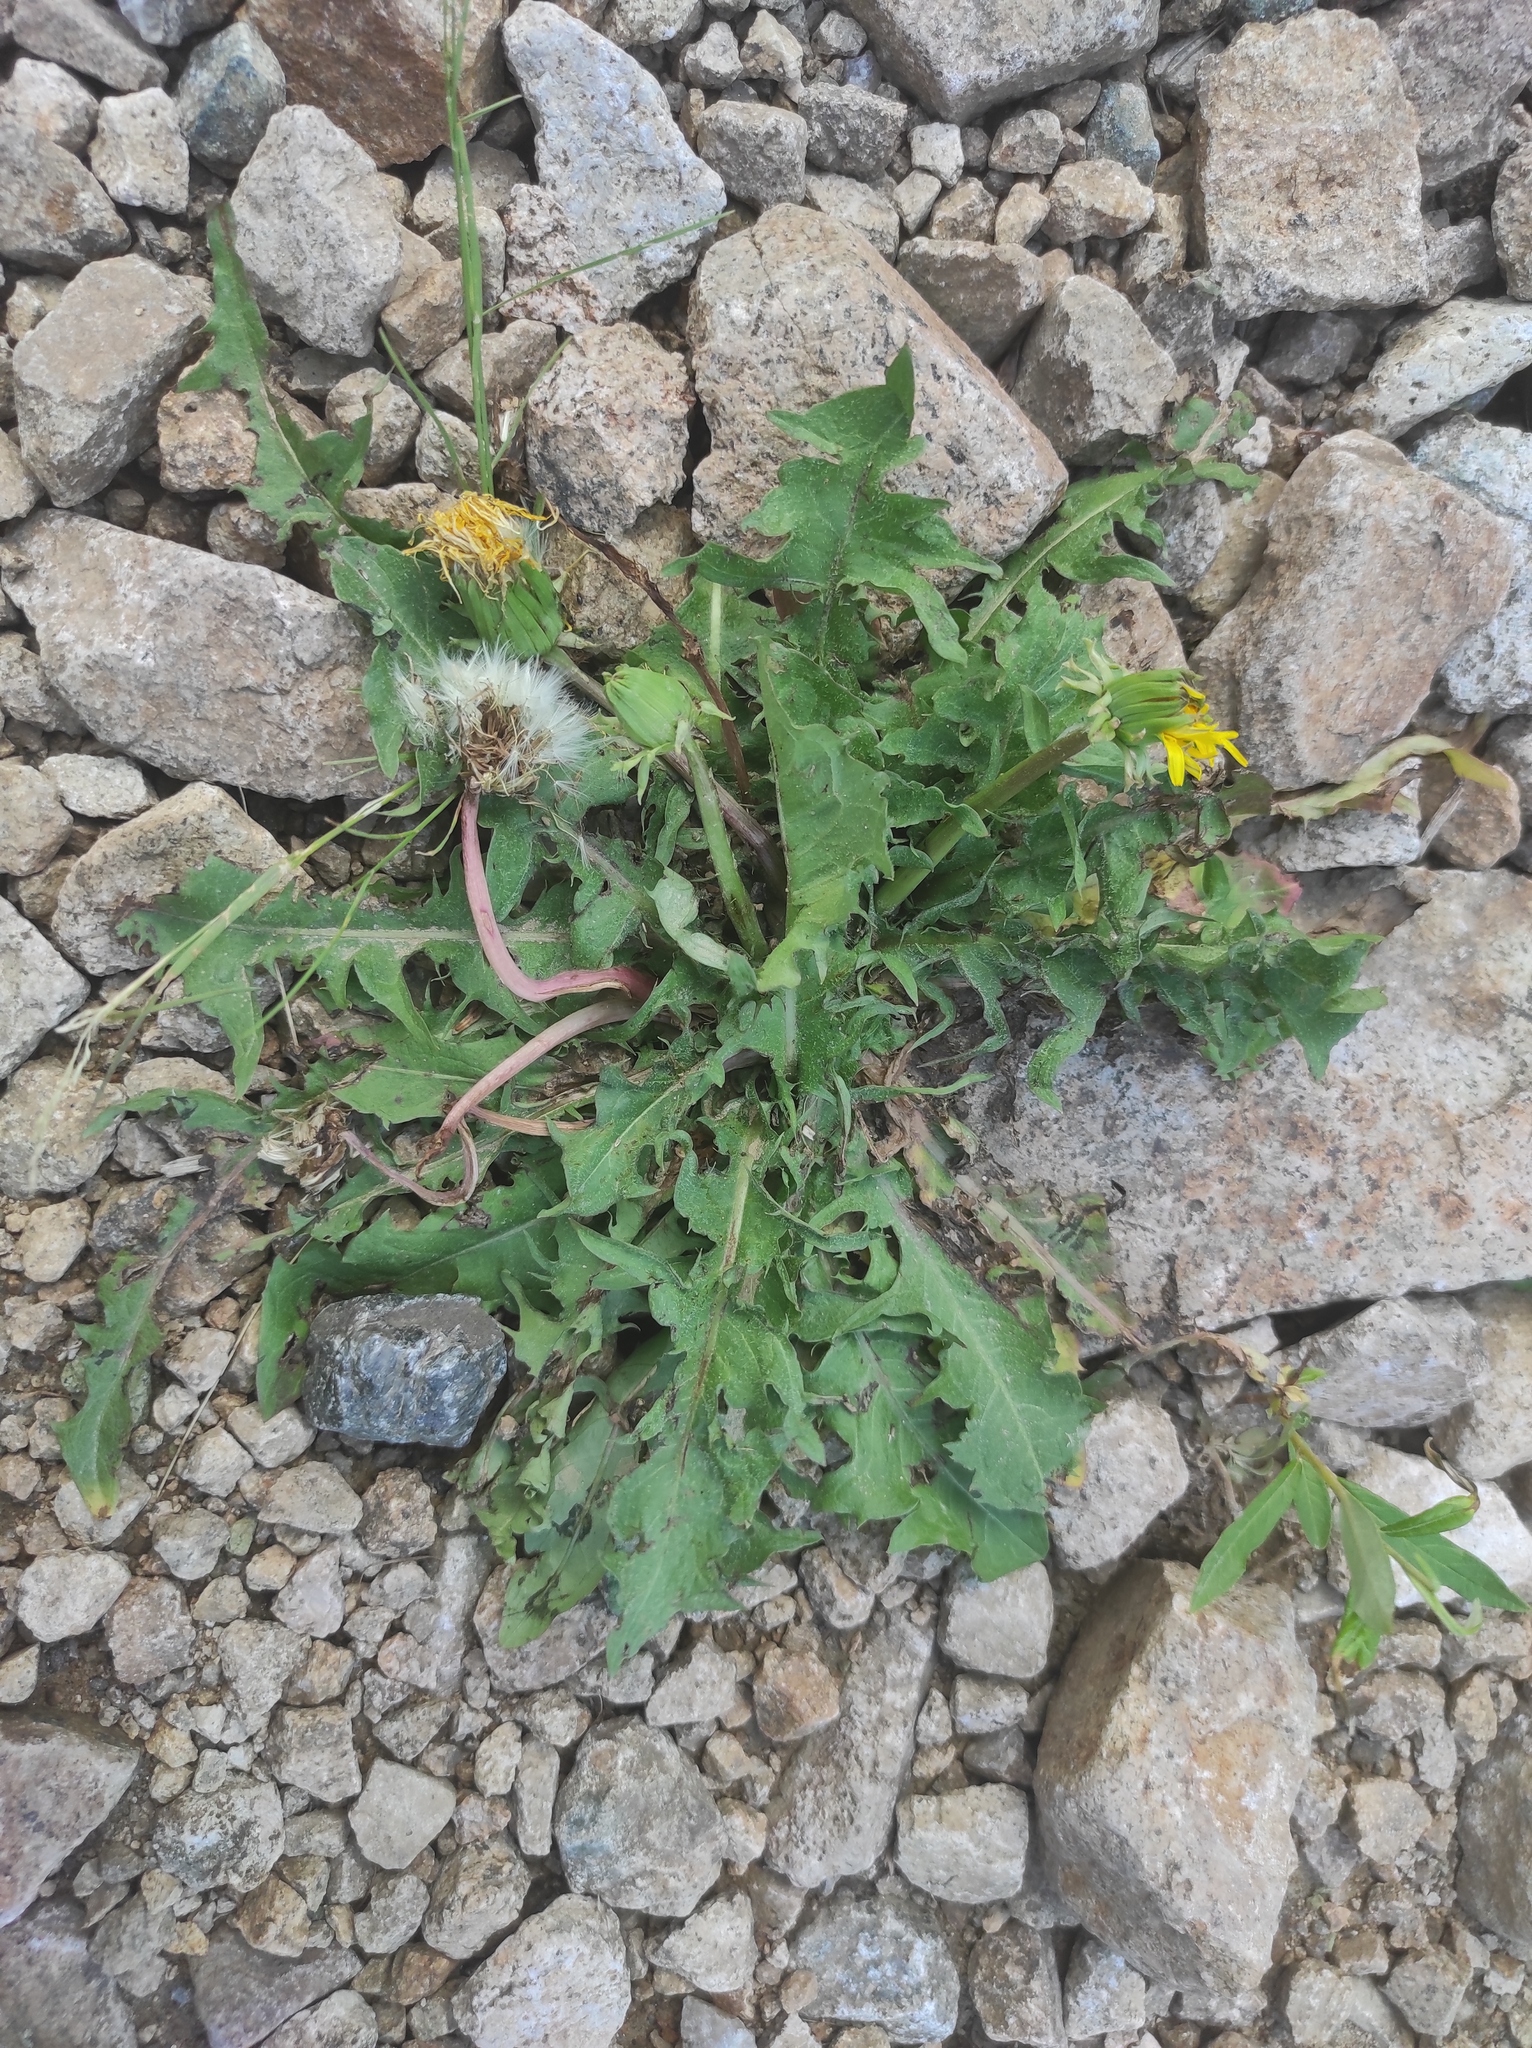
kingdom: Plantae
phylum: Tracheophyta
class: Magnoliopsida
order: Asterales
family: Asteraceae
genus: Taraxacum
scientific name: Taraxacum officinale
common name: Common dandelion
